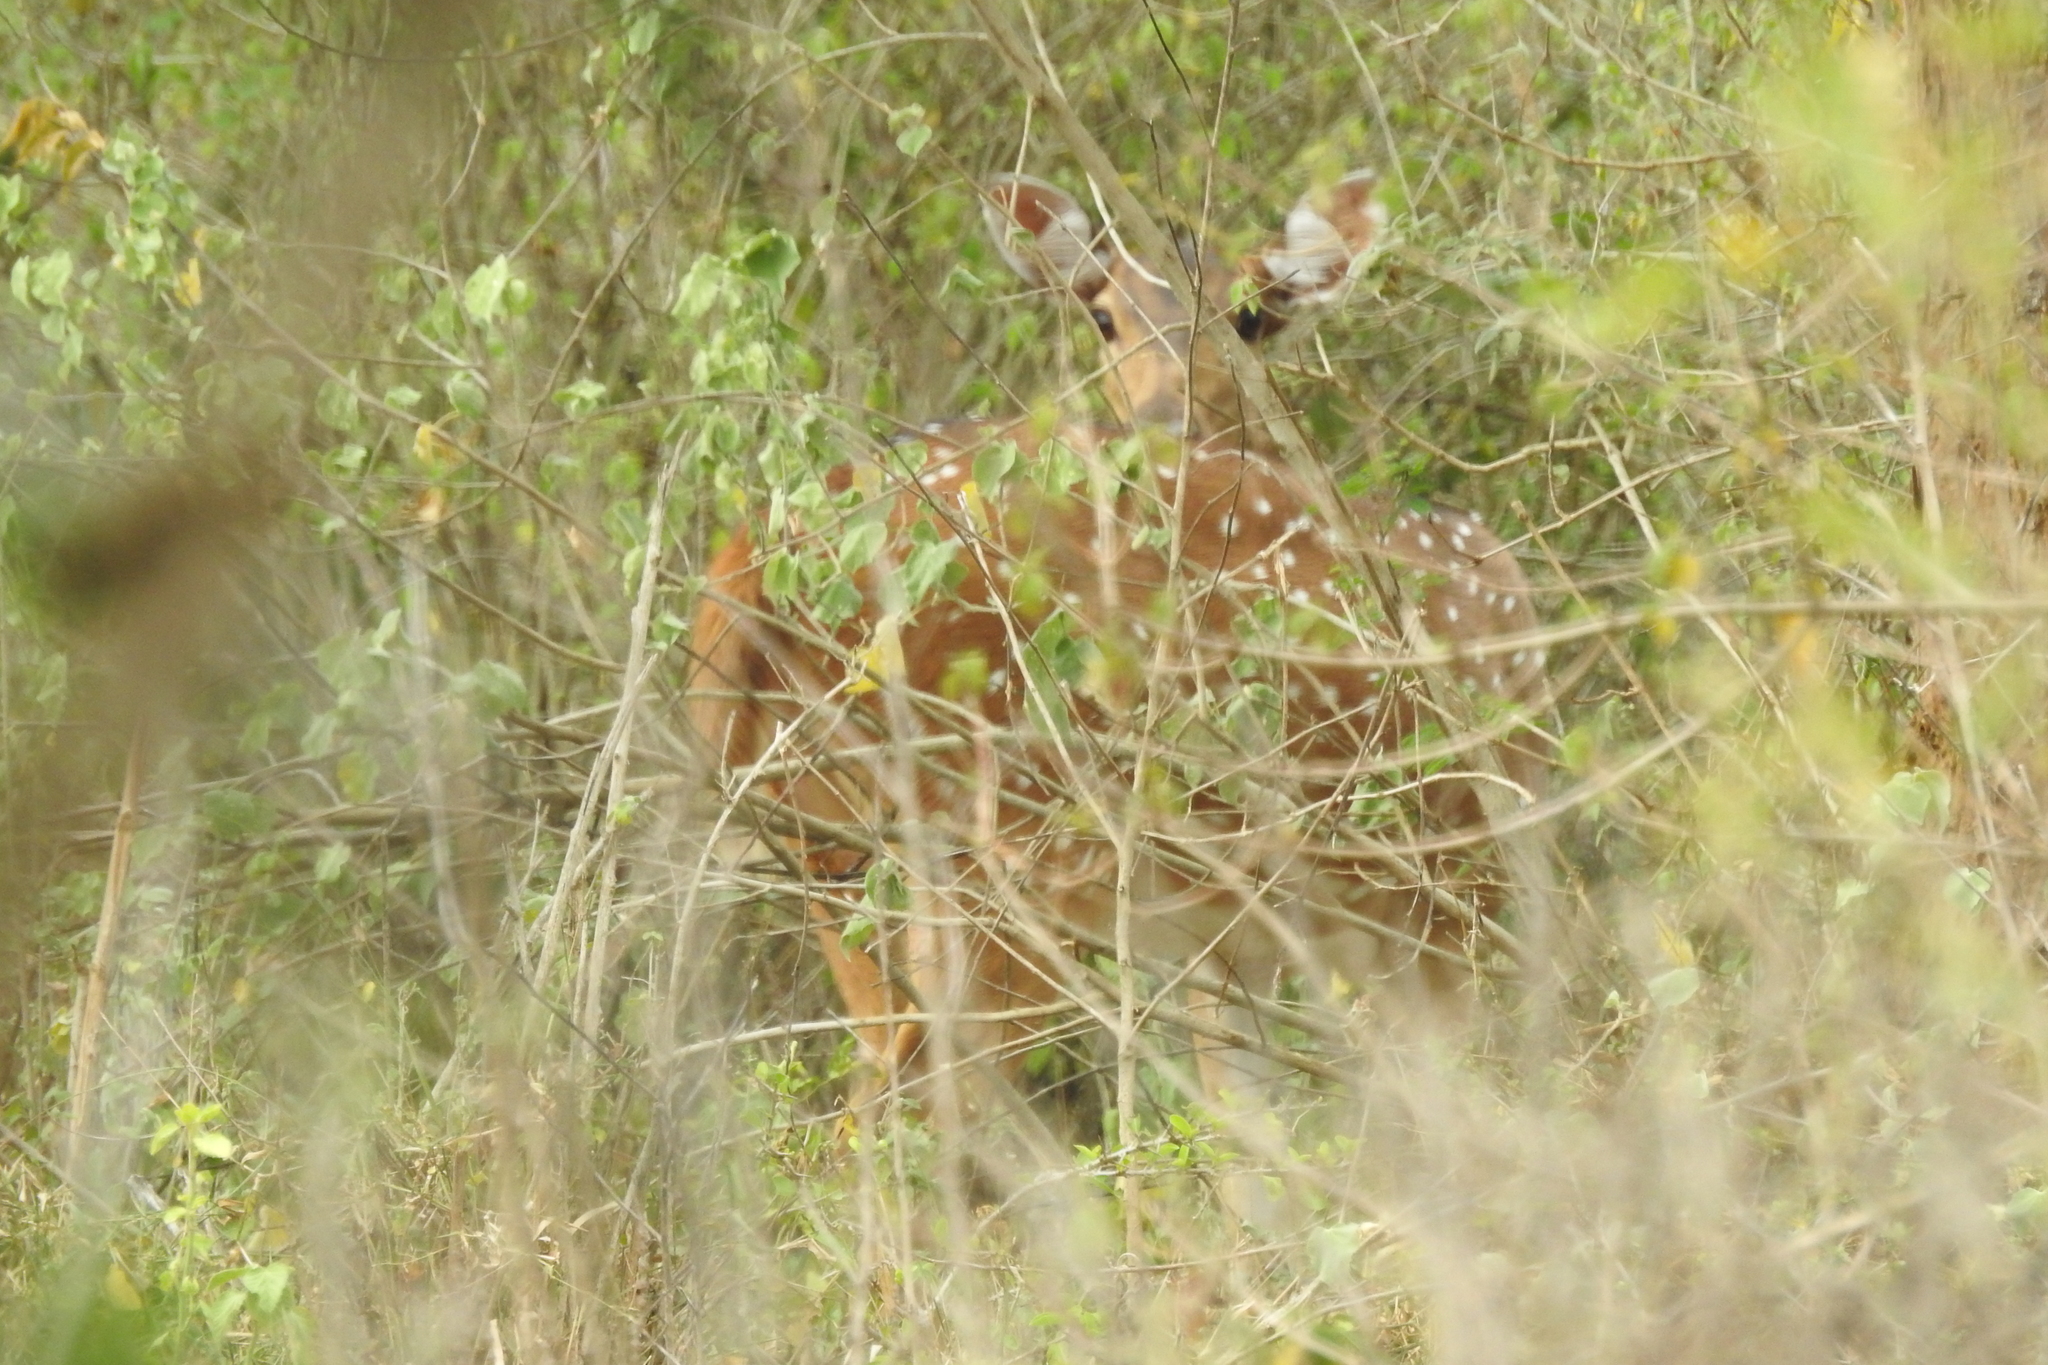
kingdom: Animalia
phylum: Chordata
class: Mammalia
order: Artiodactyla
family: Cervidae
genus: Axis
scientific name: Axis axis
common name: Chital
